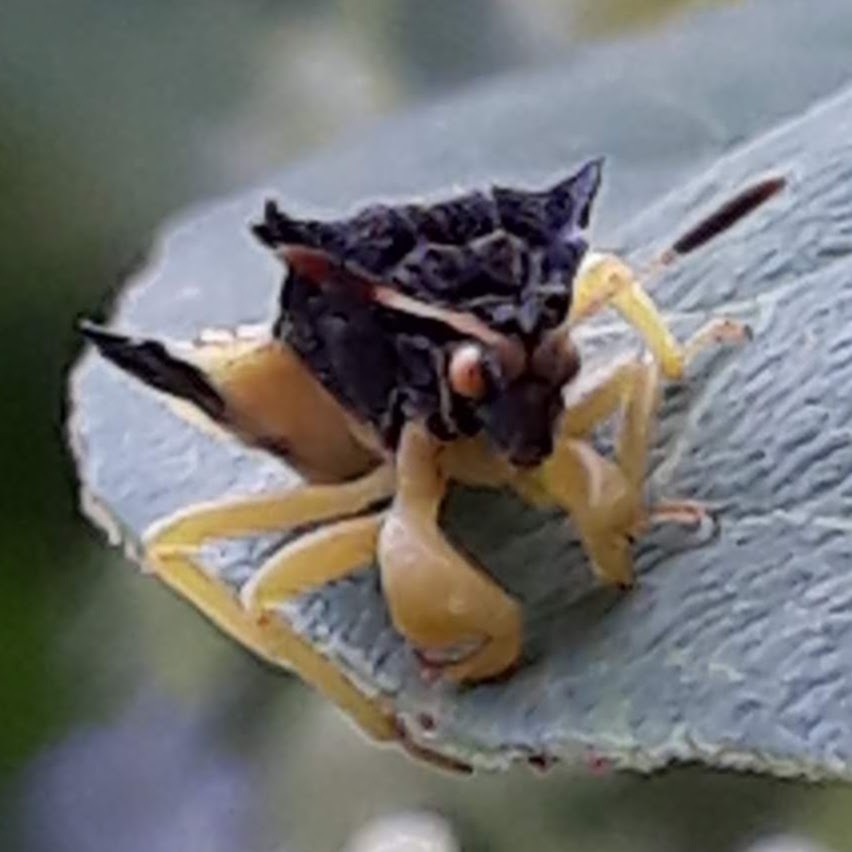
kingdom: Animalia
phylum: Arthropoda
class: Insecta
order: Hemiptera
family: Reduviidae
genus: Phymata
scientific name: Phymata pennsylvanica
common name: Pennsylvania ambush bug
